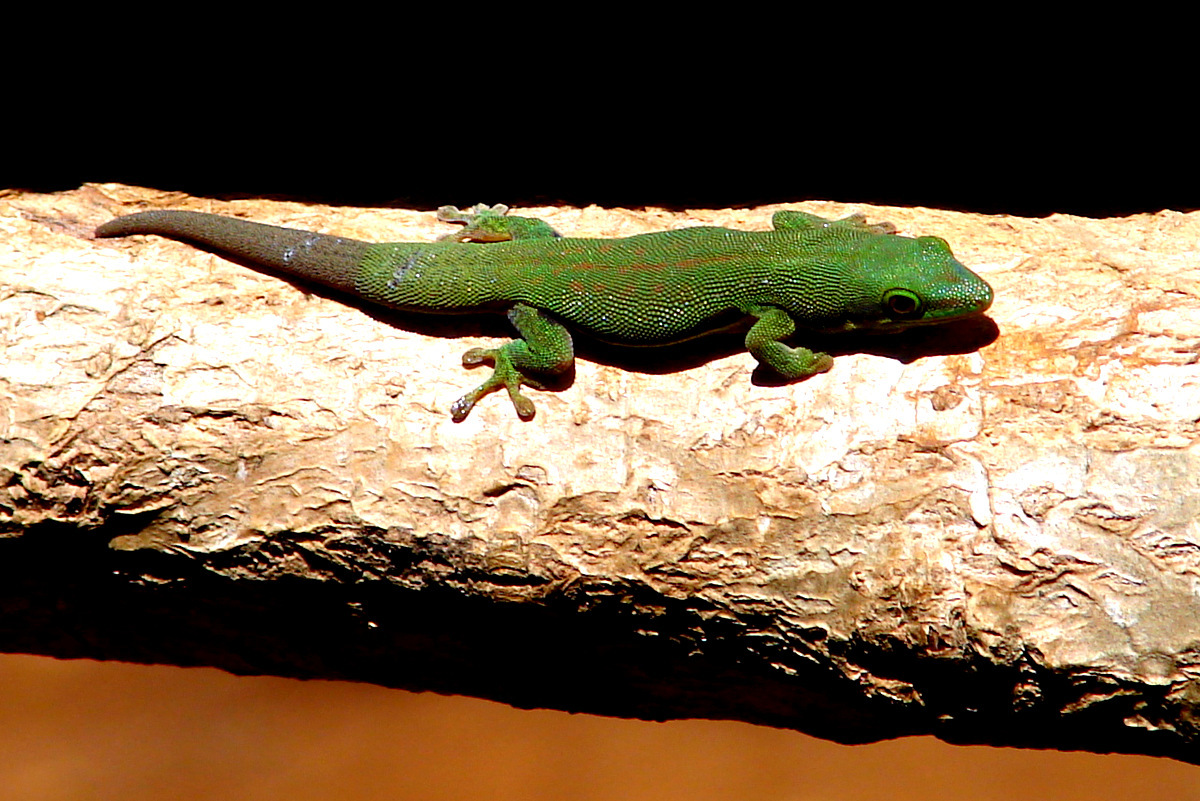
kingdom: Animalia
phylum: Chordata
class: Squamata
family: Gekkonidae
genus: Phelsuma
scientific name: Phelsuma dorsivittata
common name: Striped day gecko
